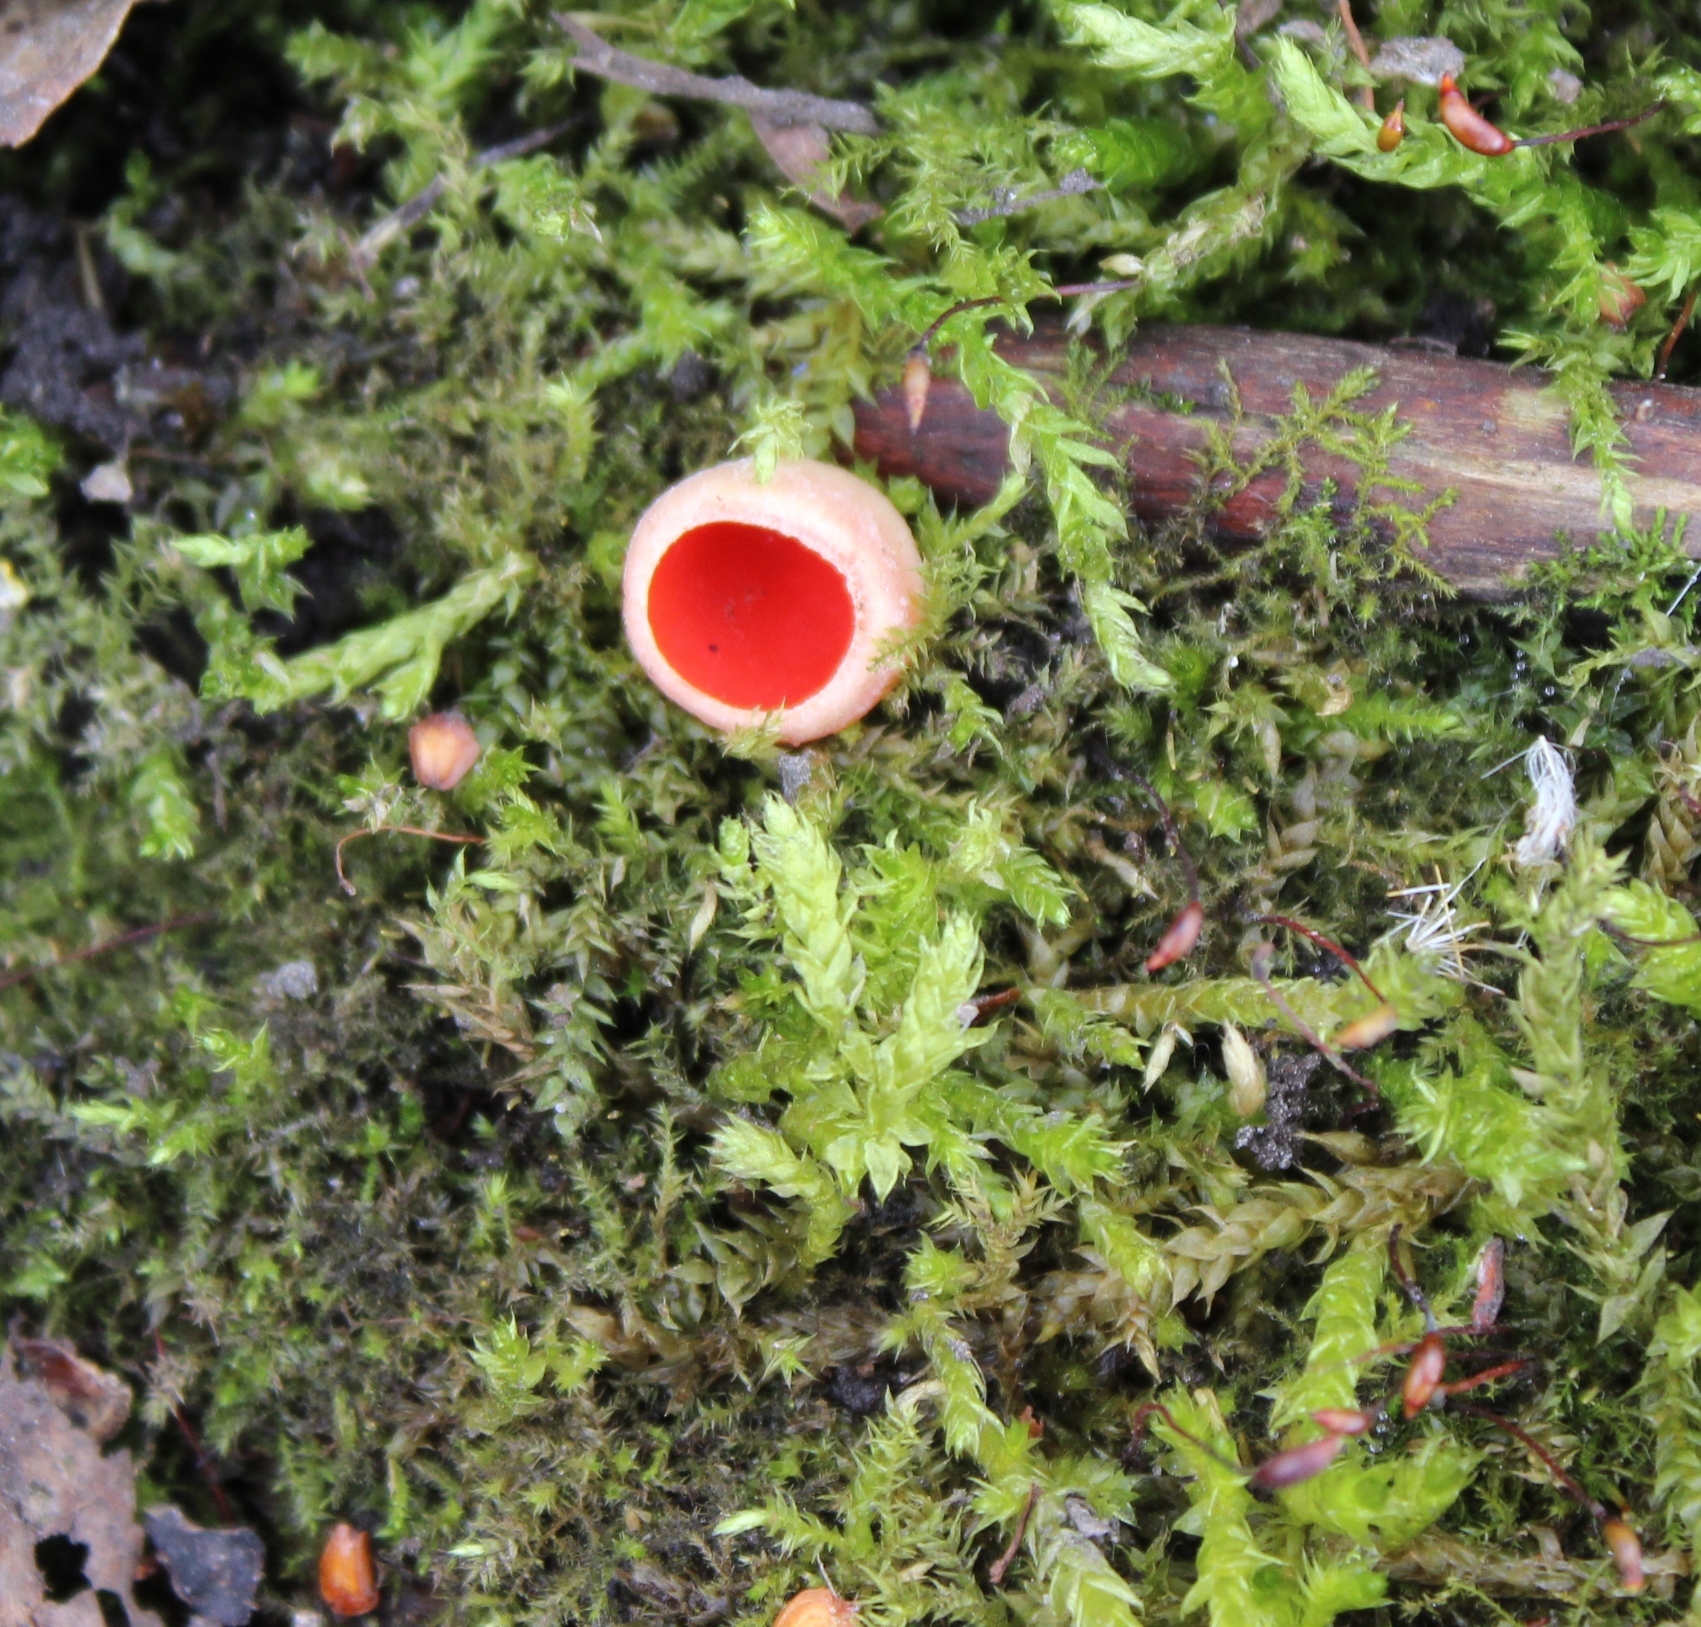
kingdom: Fungi
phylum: Ascomycota
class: Pezizomycetes
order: Pezizales
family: Sarcoscyphaceae
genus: Sarcoscypha
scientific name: Sarcoscypha
